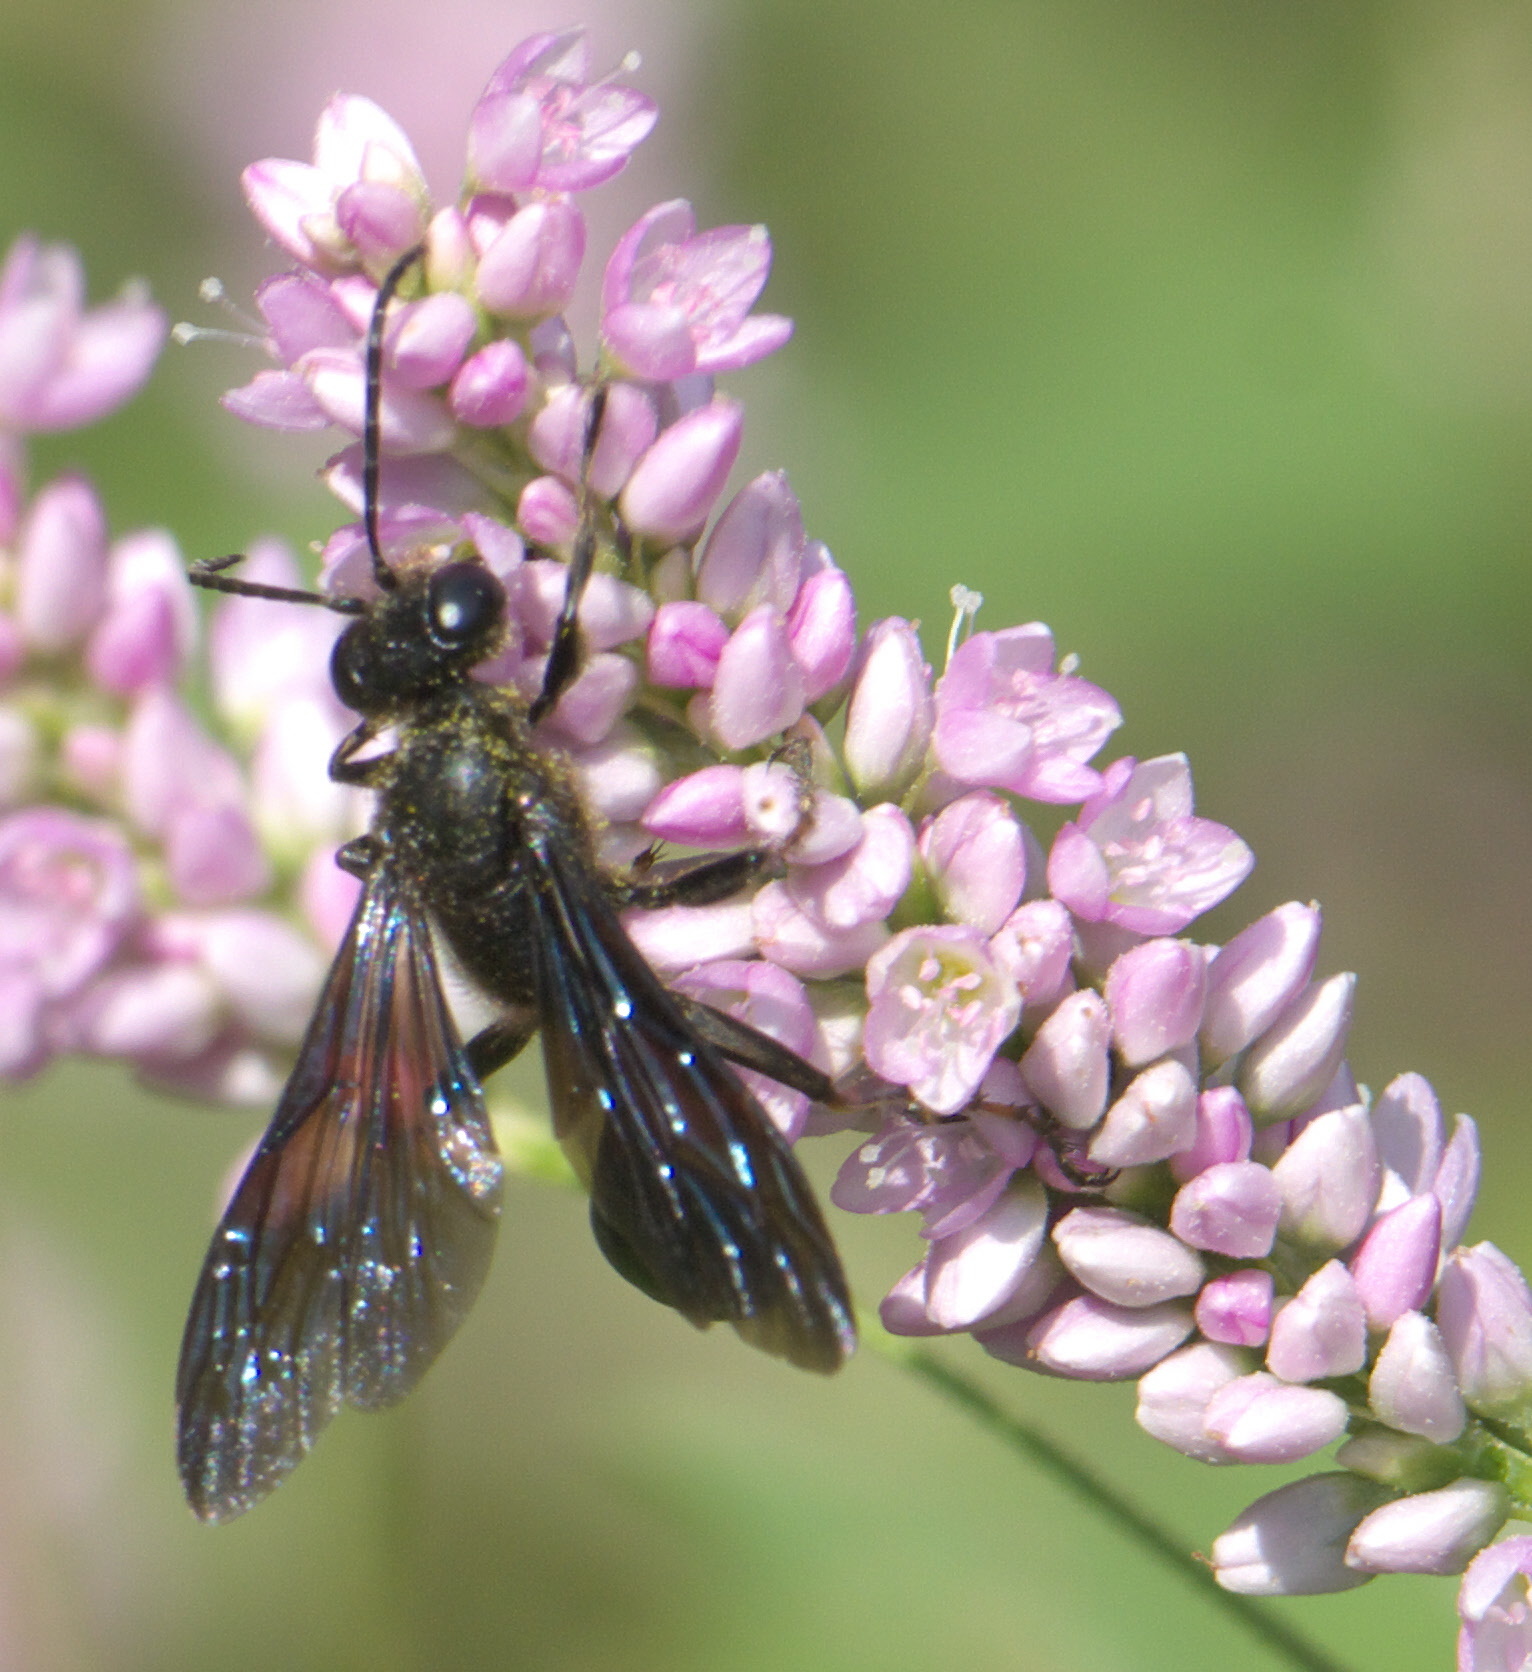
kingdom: Animalia
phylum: Arthropoda
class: Insecta
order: Hymenoptera
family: Sphecidae
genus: Isodontia
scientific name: Isodontia auripes
